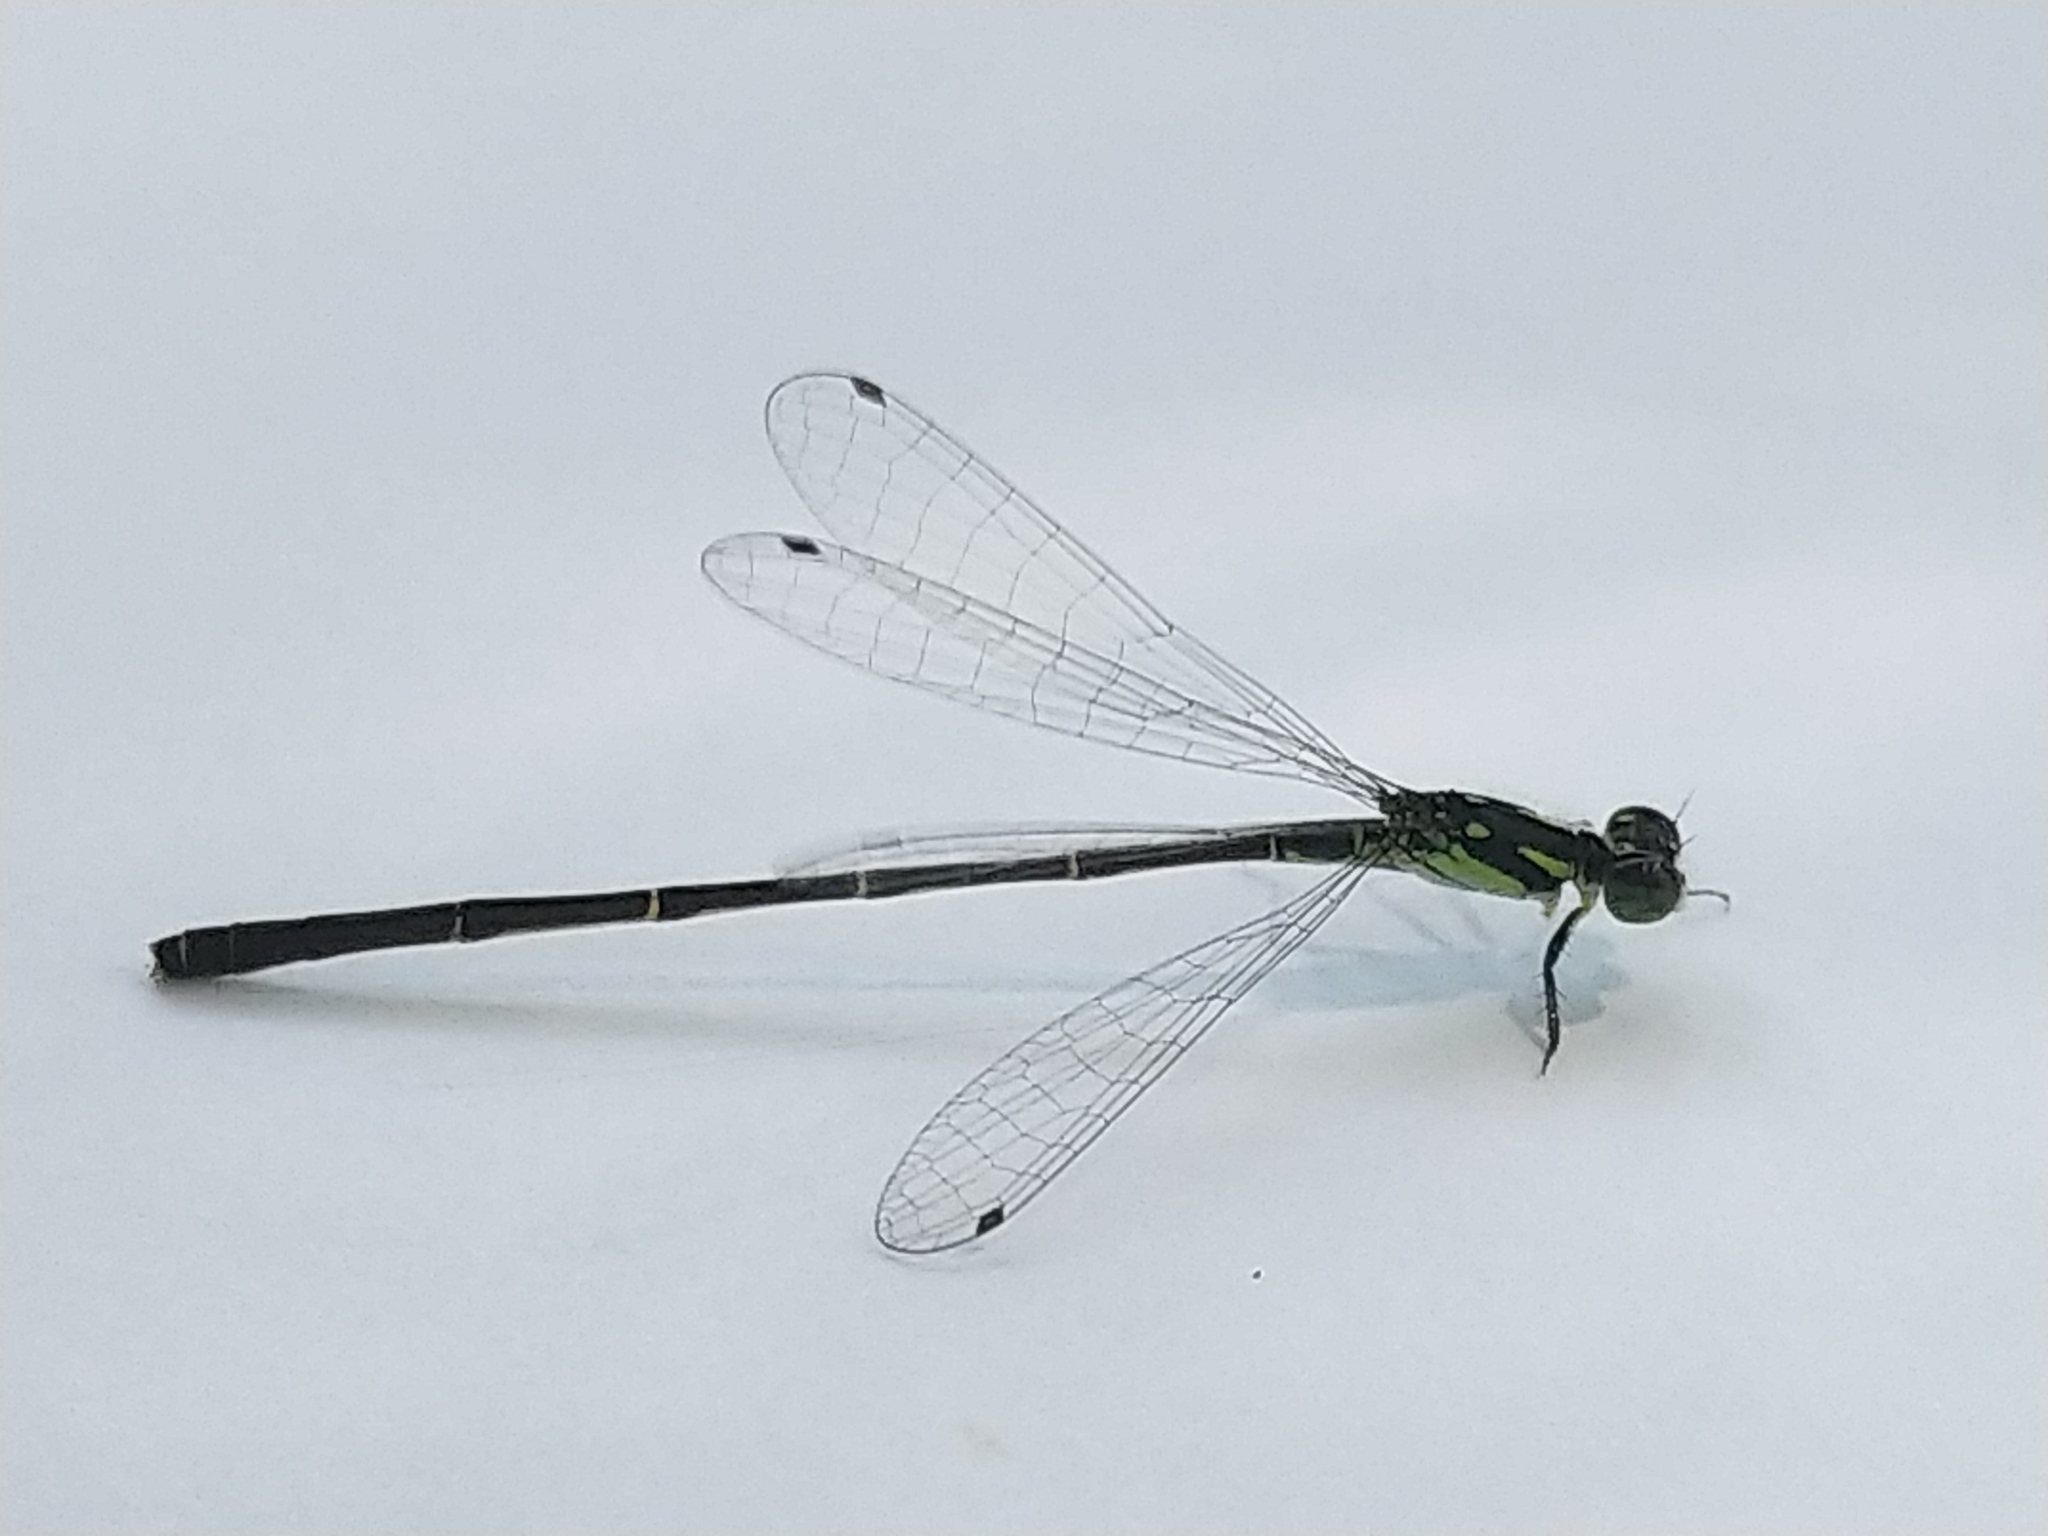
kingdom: Animalia
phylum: Arthropoda
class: Insecta
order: Odonata
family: Coenagrionidae
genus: Ischnura
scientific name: Ischnura posita
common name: Fragile forktail
